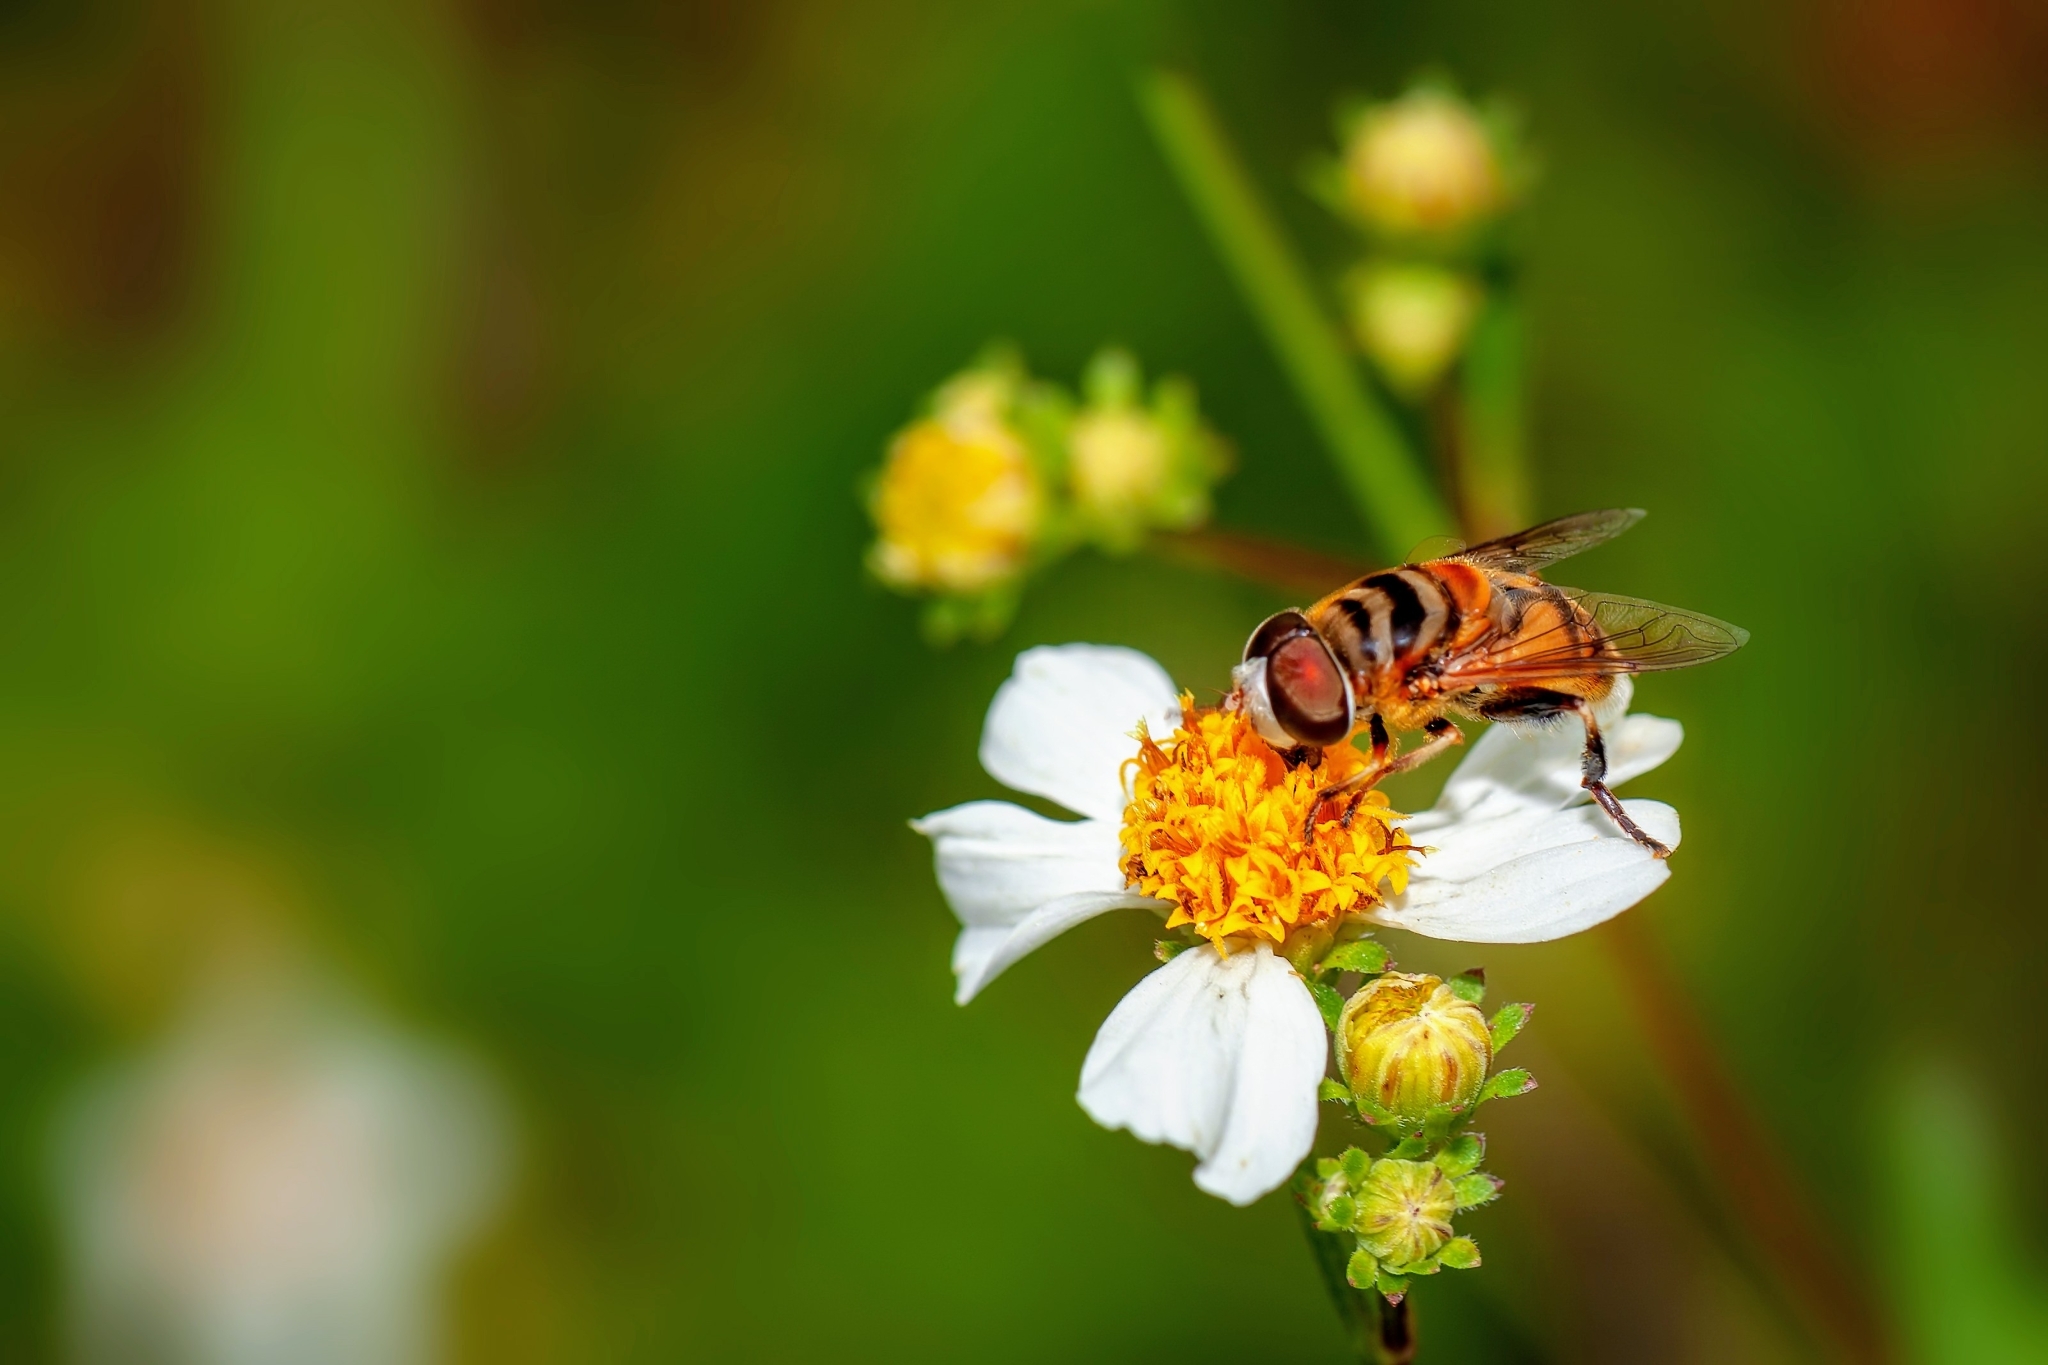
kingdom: Animalia
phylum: Arthropoda
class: Insecta
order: Diptera
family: Syrphidae
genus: Palpada
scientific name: Palpada vinetorum
